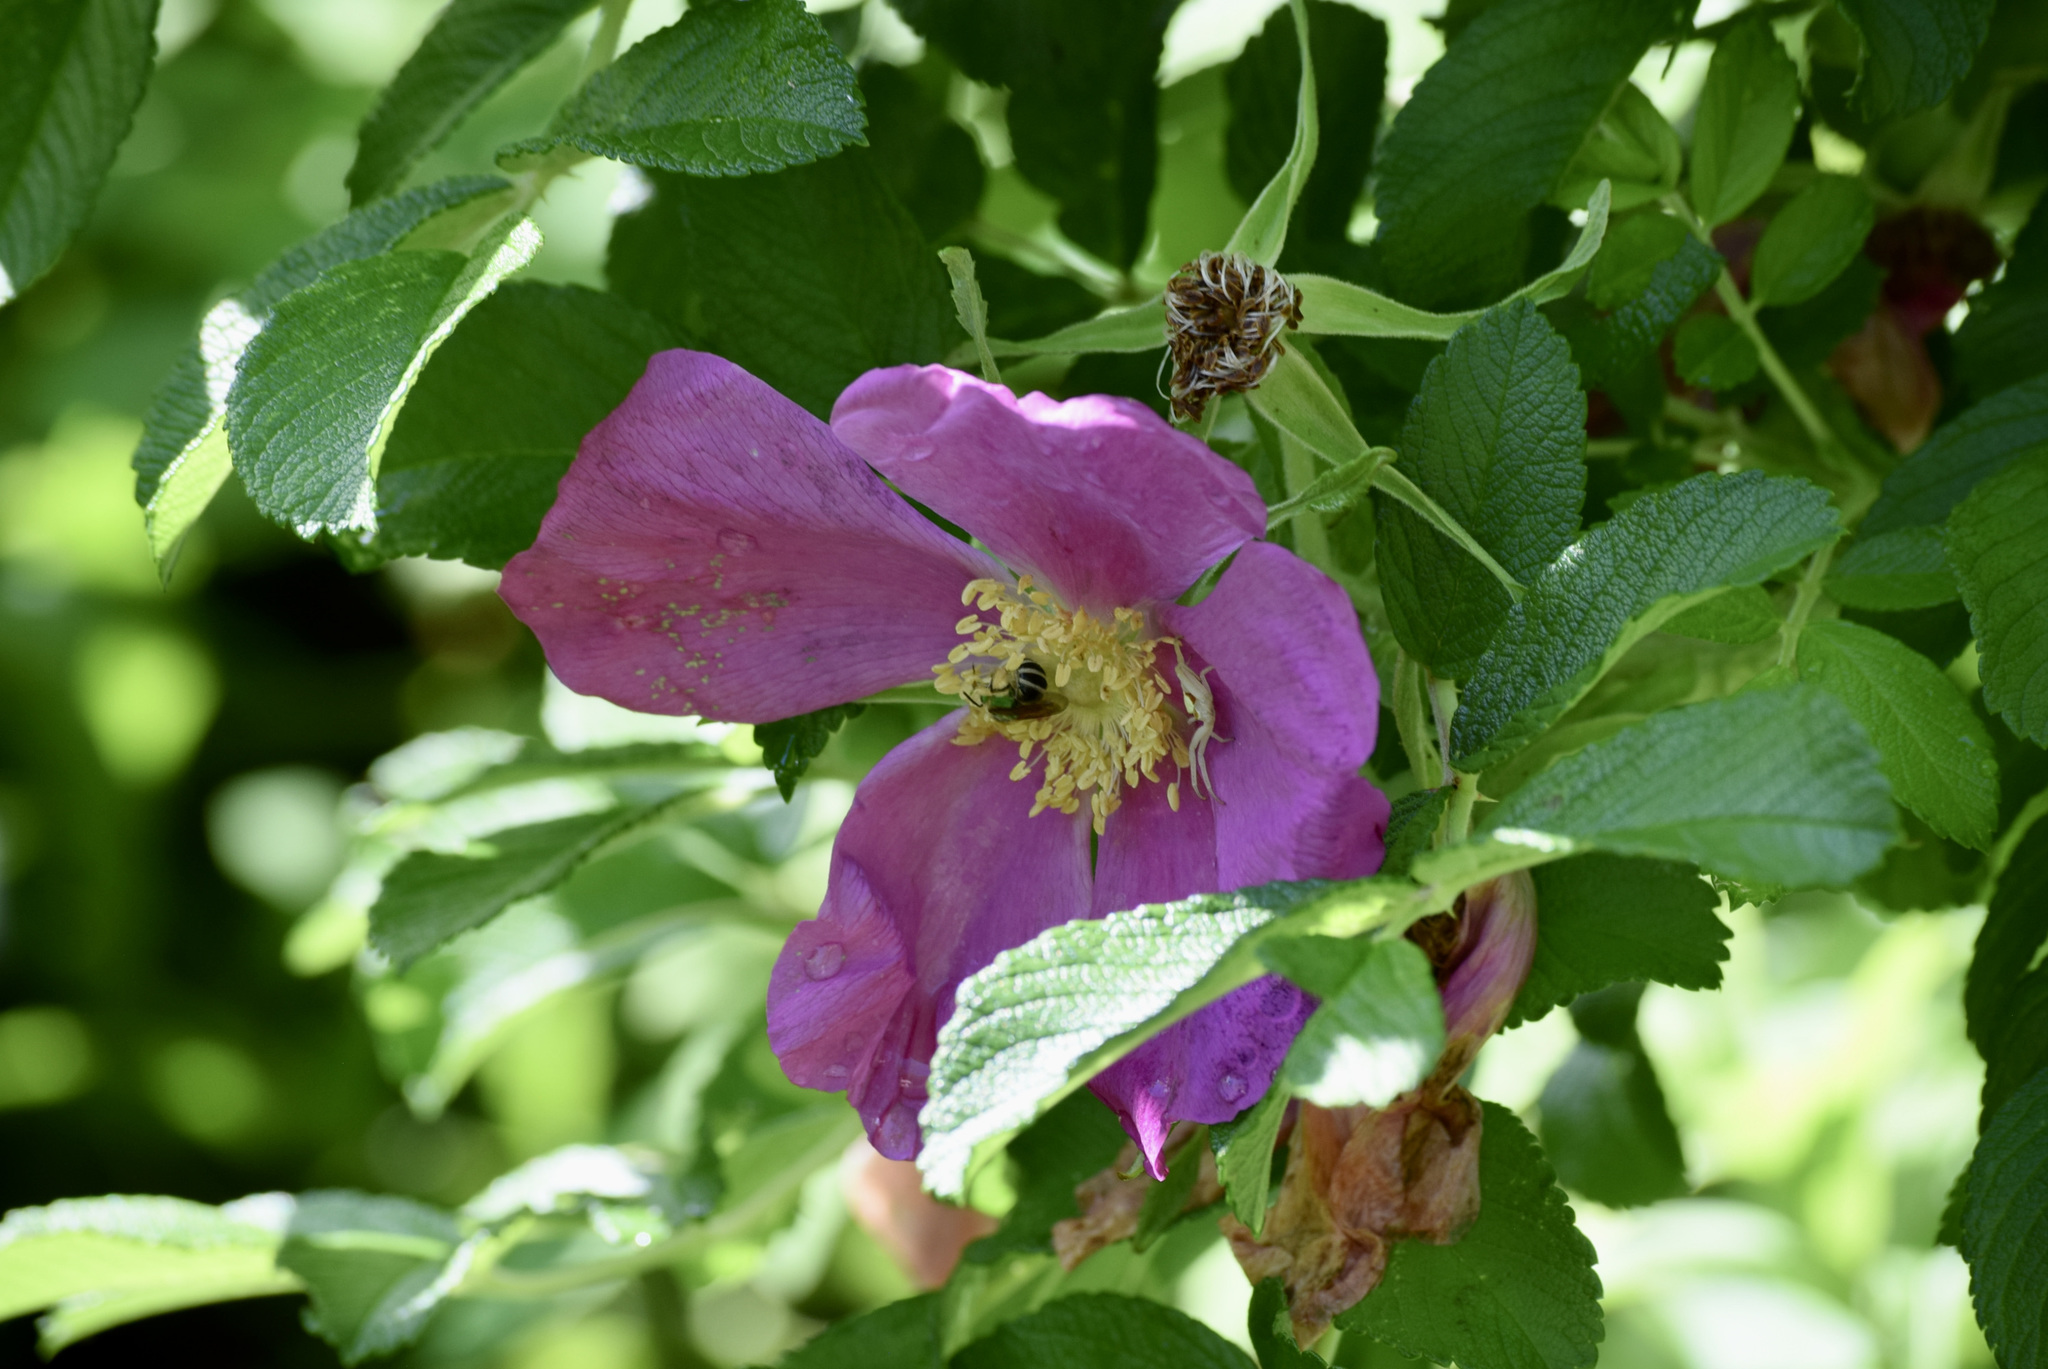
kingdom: Animalia
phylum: Arthropoda
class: Insecta
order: Hymenoptera
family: Halictidae
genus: Agapostemon
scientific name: Agapostemon virescens
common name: Bicolored striped sweat bee
